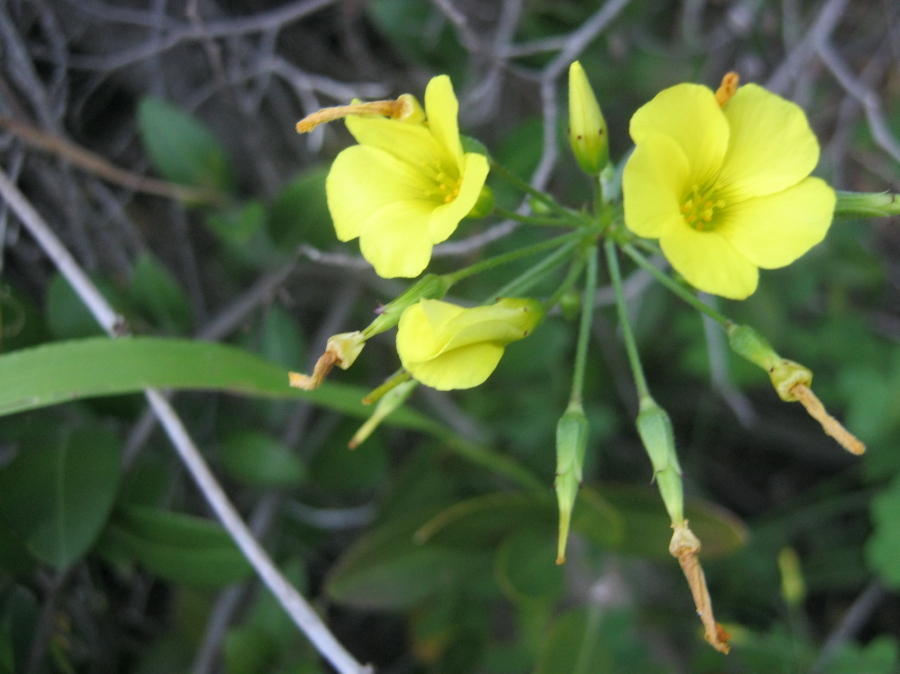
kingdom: Plantae
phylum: Tracheophyta
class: Magnoliopsida
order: Oxalidales
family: Oxalidaceae
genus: Oxalis
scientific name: Oxalis pes-caprae
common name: Bermuda-buttercup
